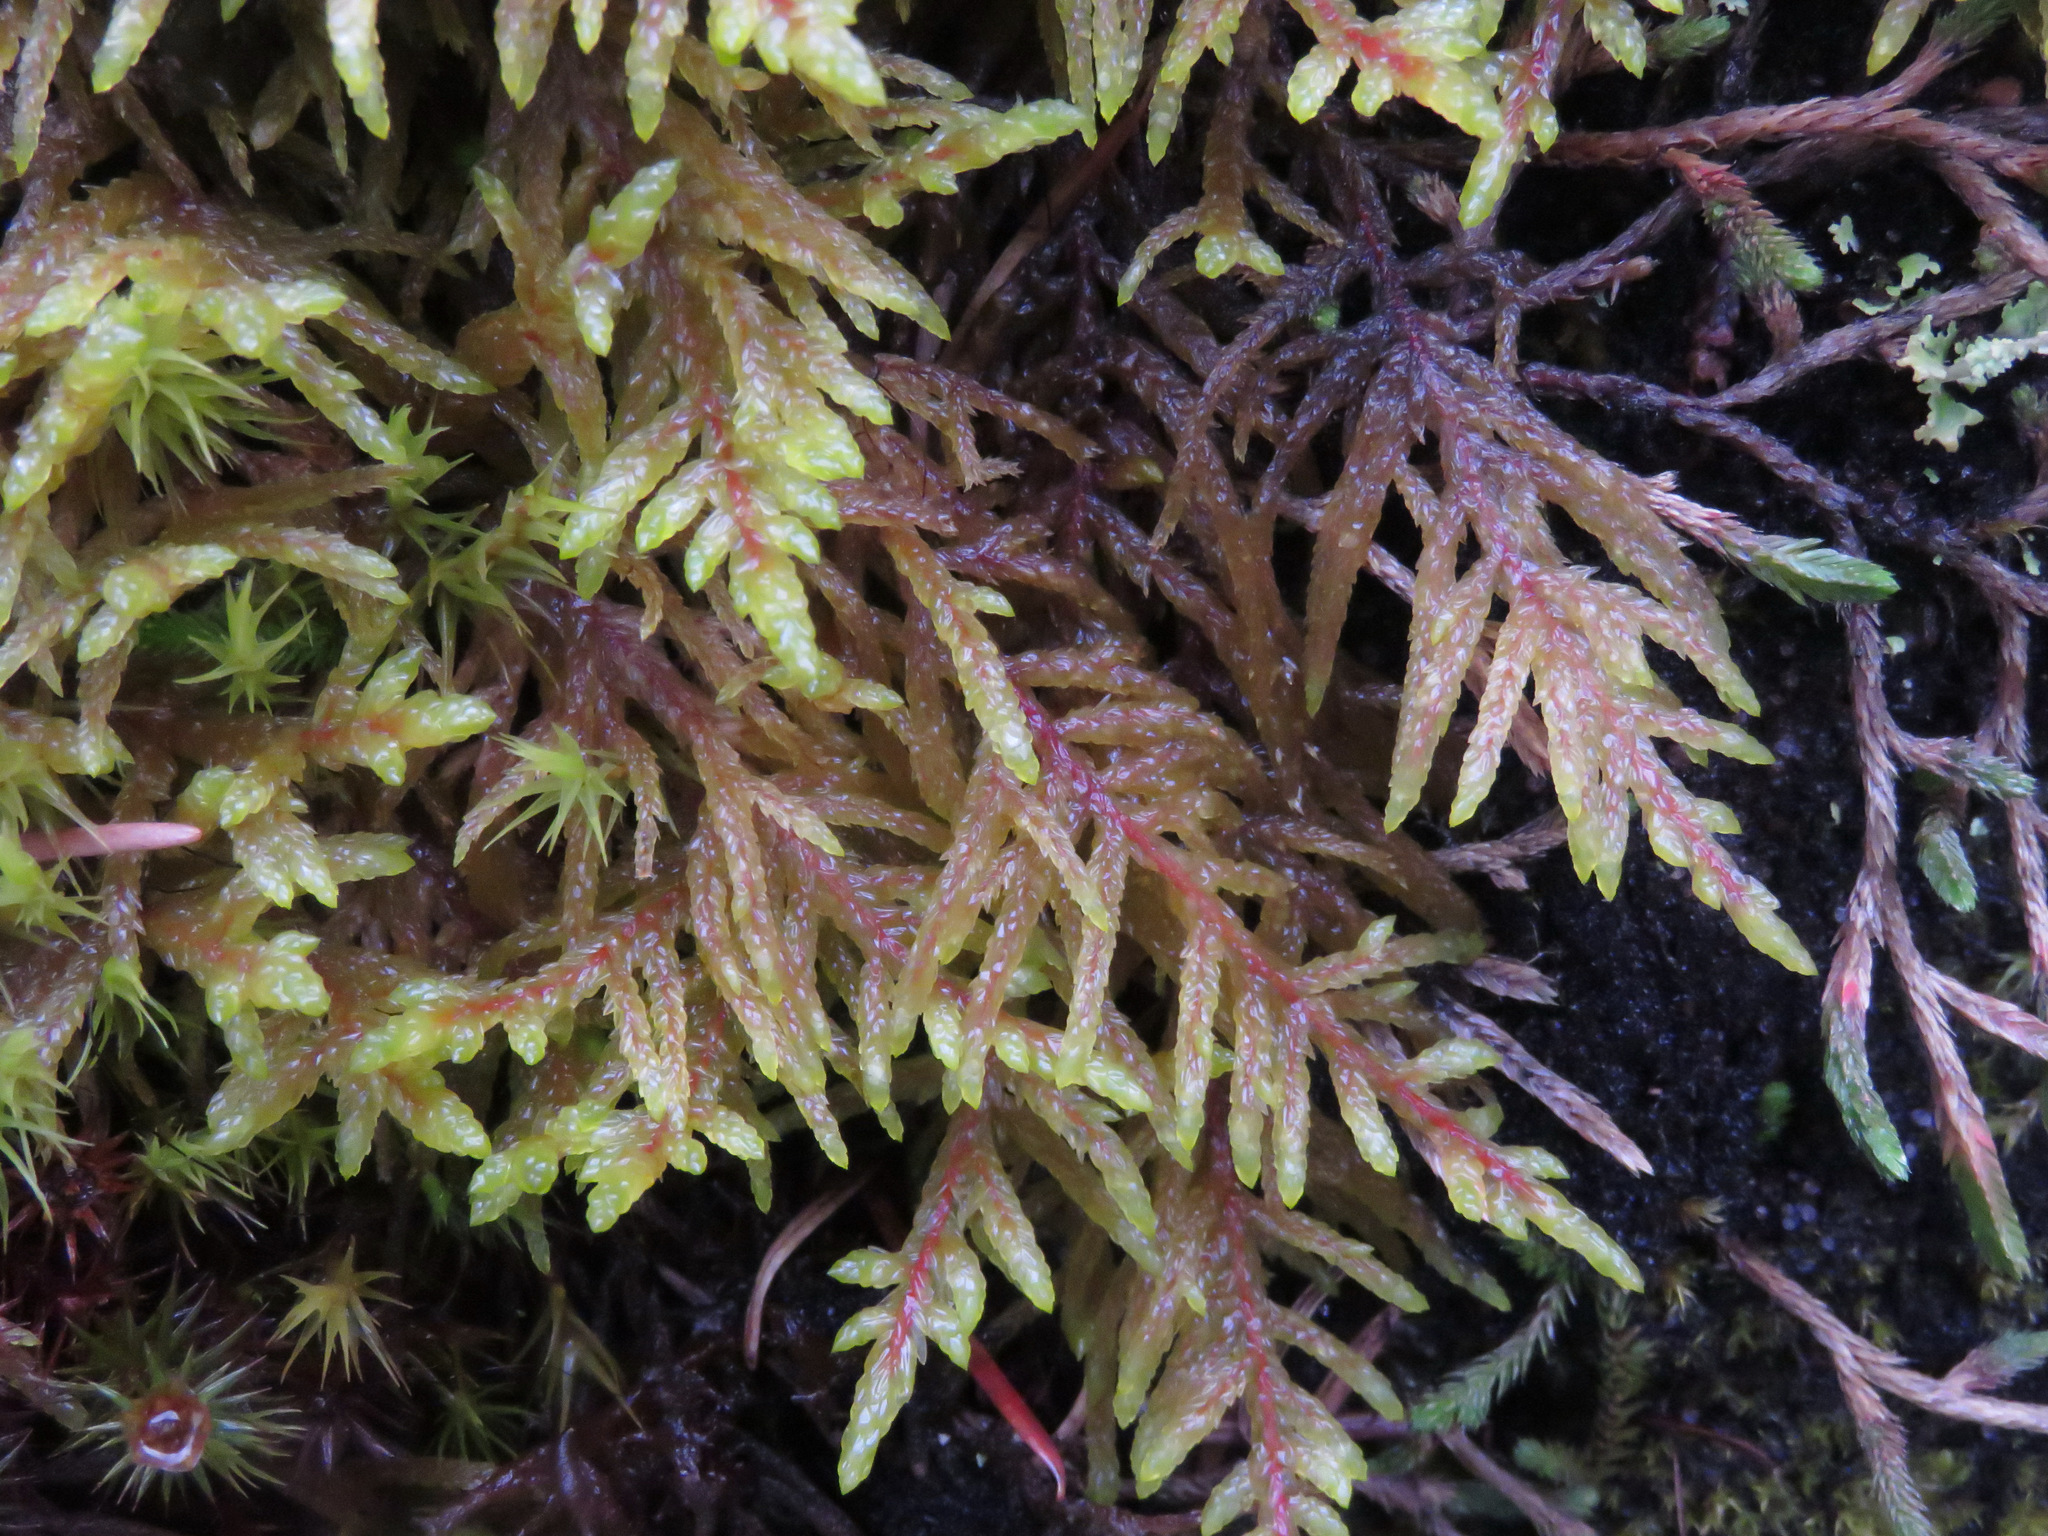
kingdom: Plantae
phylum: Bryophyta
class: Bryopsida
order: Hypnales
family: Hylocomiaceae
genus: Pleurozium
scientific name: Pleurozium schreberi
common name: Red-stemmed feather moss
